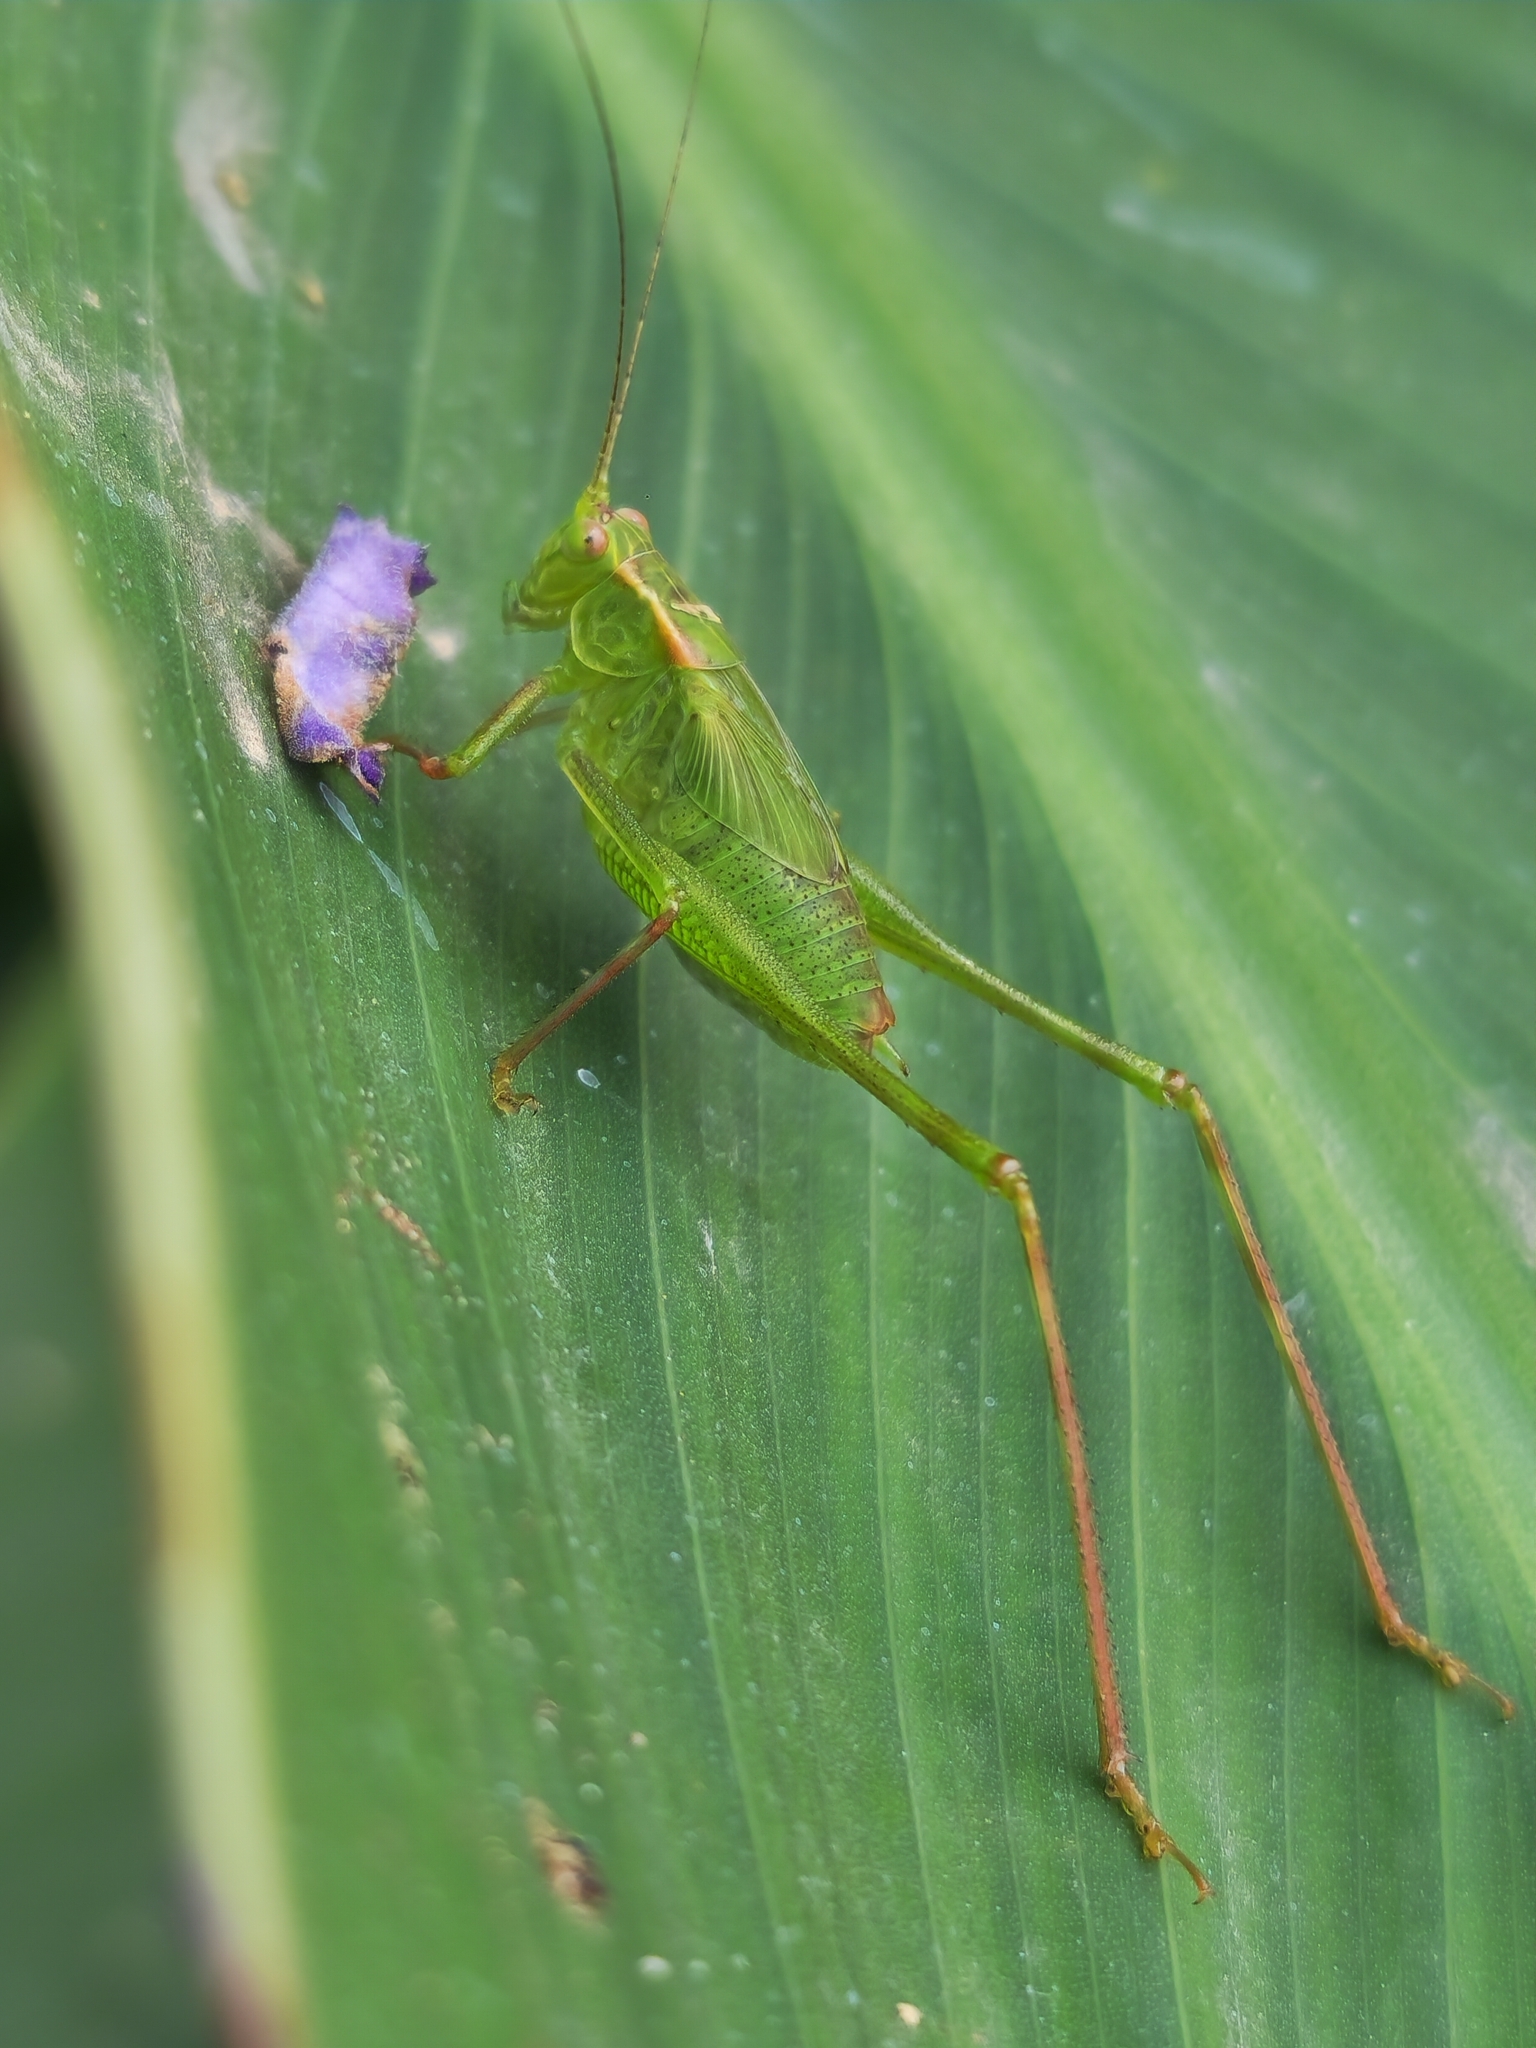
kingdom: Animalia
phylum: Arthropoda
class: Insecta
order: Orthoptera
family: Tettigoniidae
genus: Ligocatinus
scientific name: Ligocatinus spinatus
